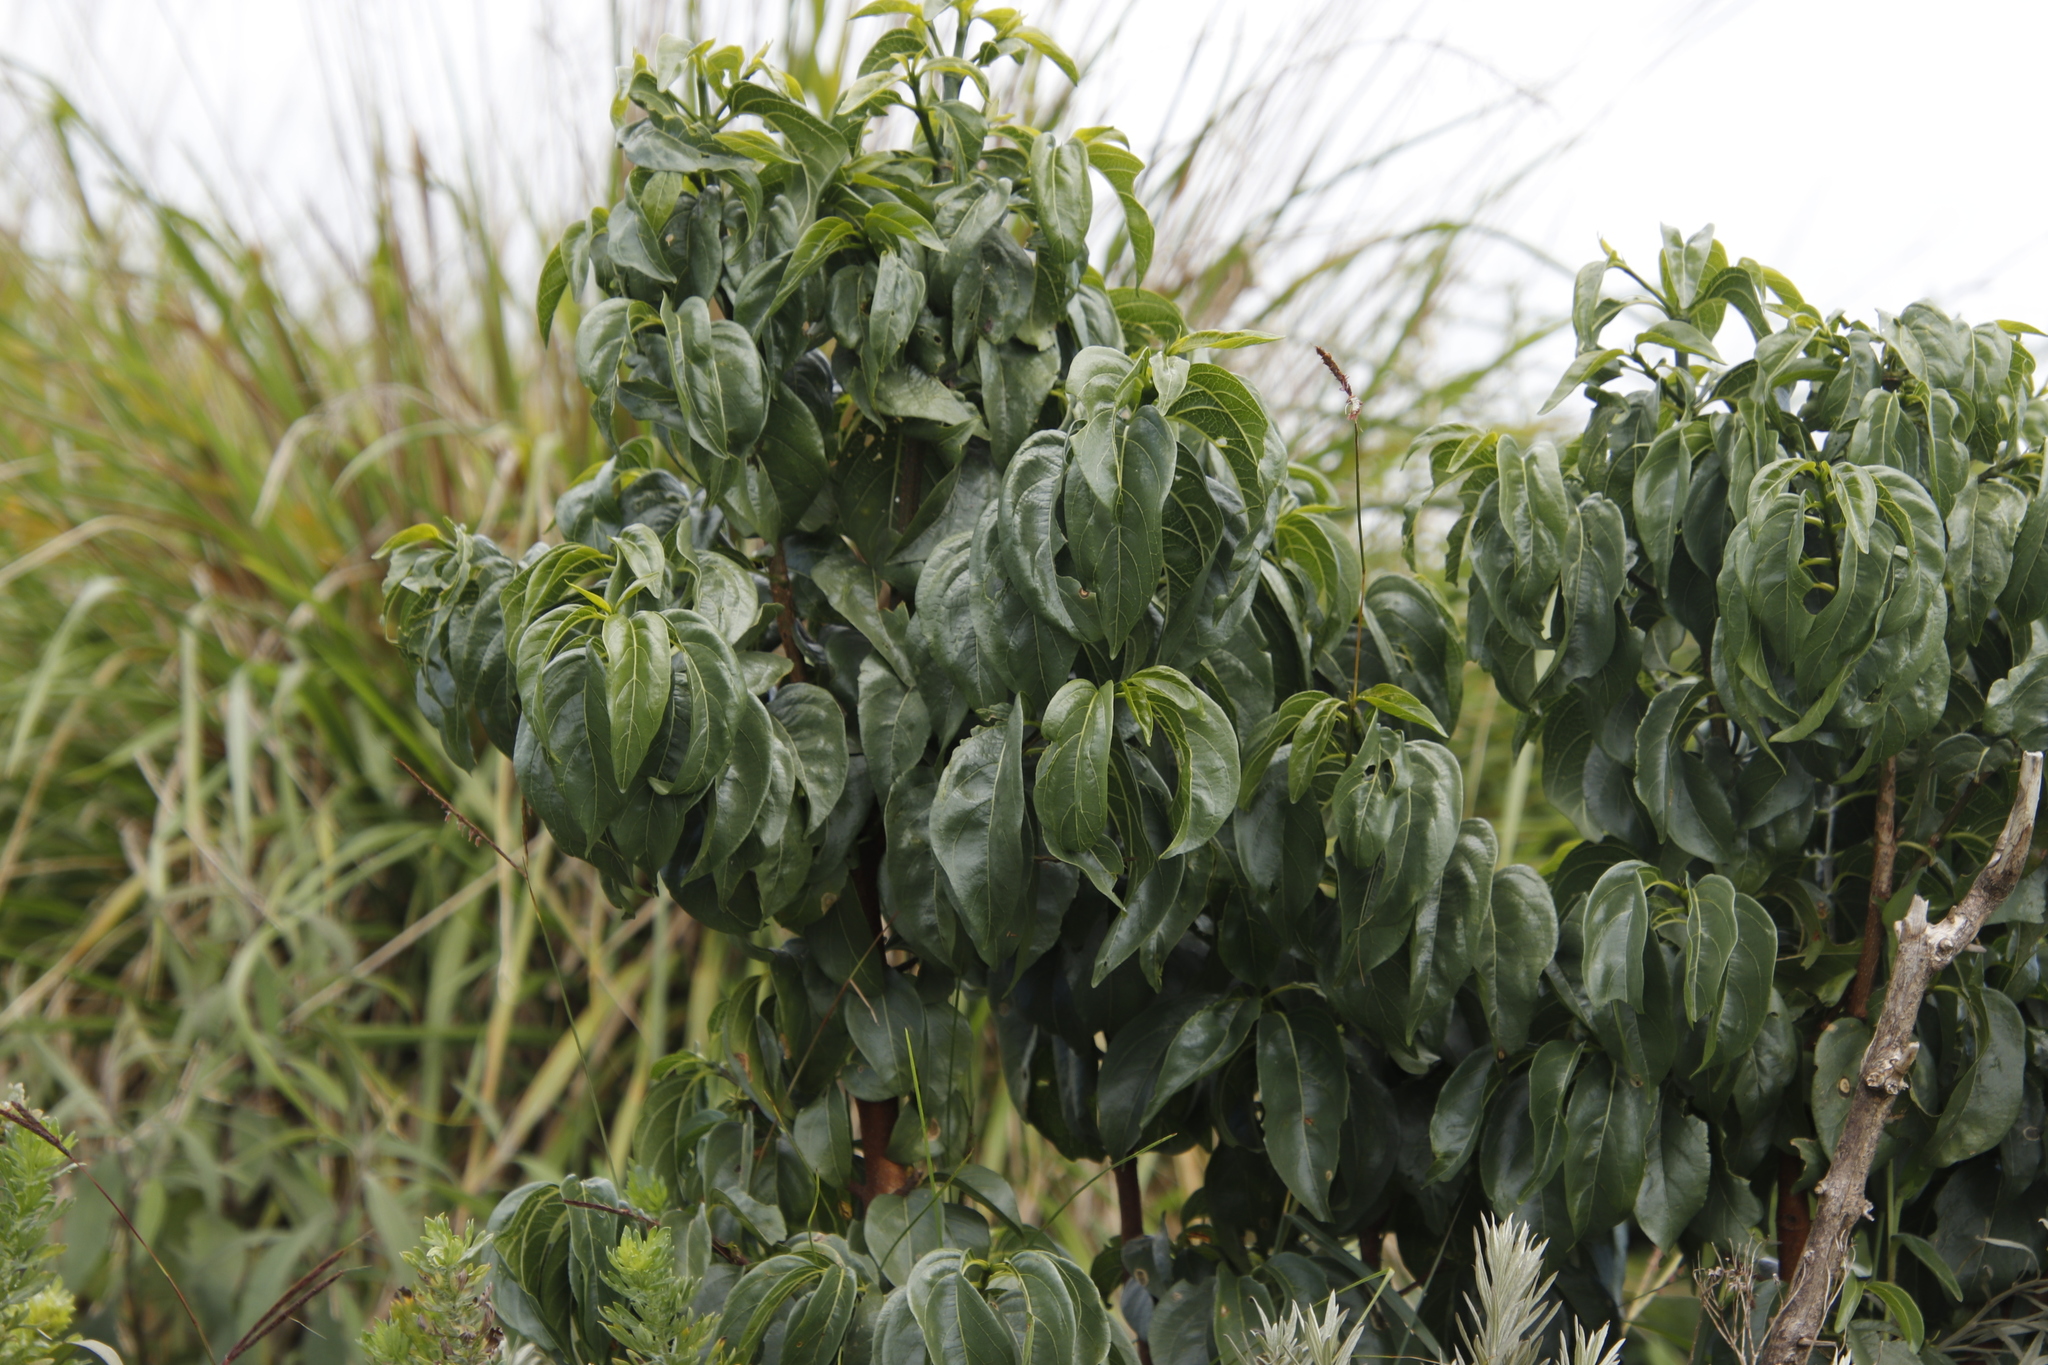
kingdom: Plantae
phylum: Tracheophyta
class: Magnoliopsida
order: Gentianales
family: Rubiaceae
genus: Vangueria
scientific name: Vangueria apiculata
